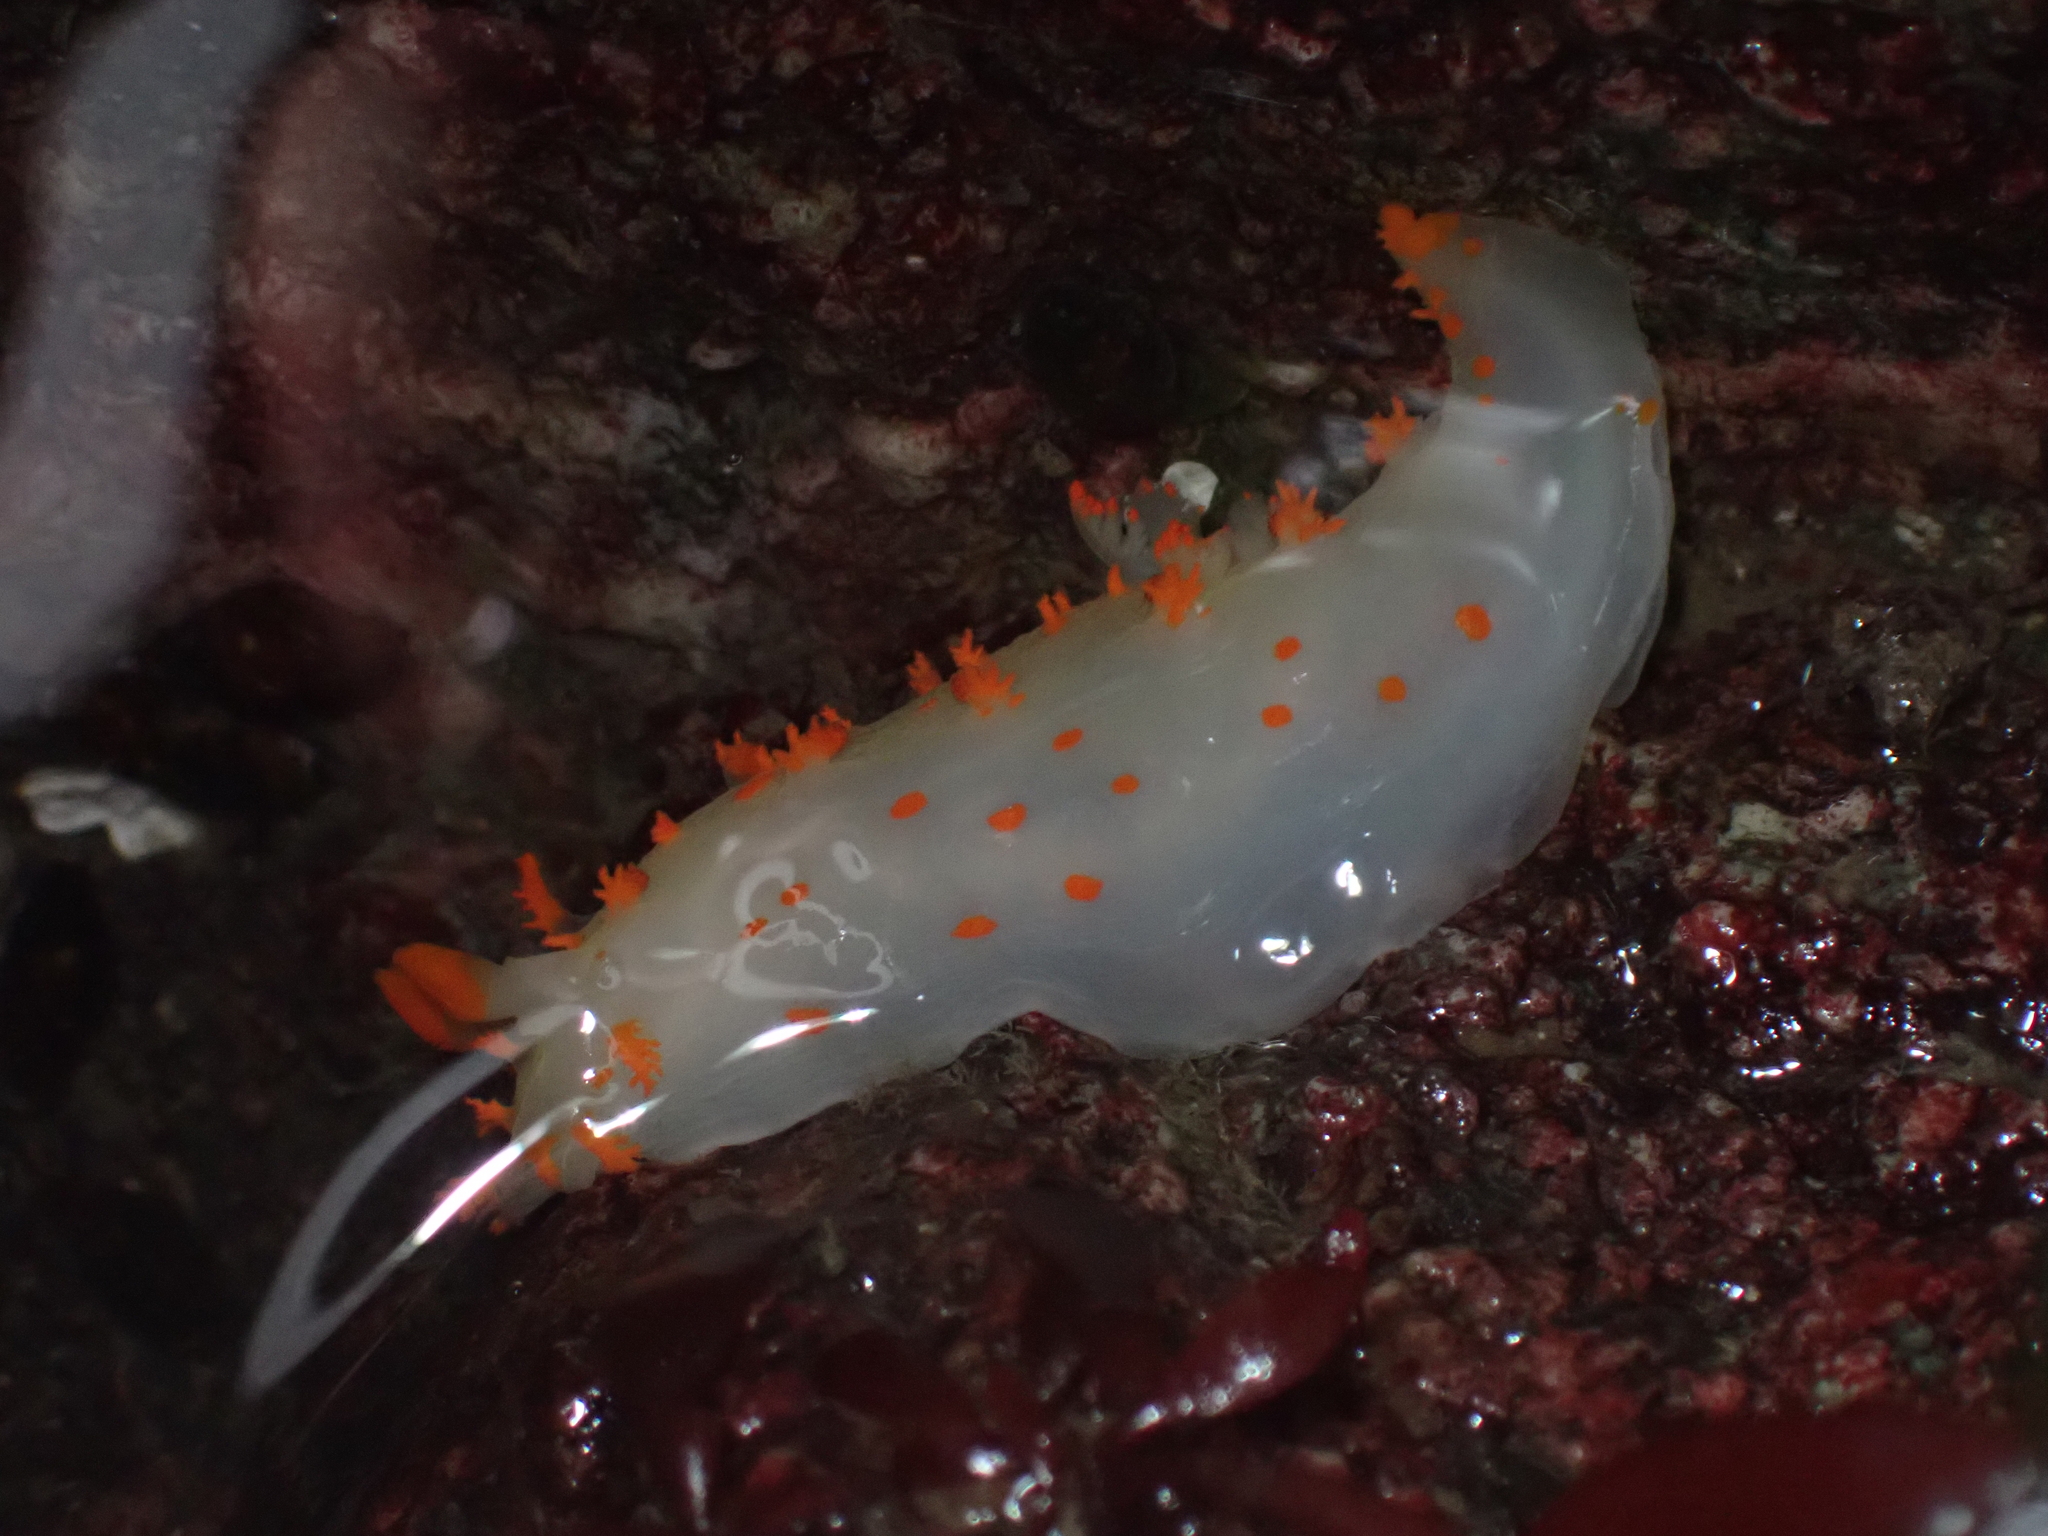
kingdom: Animalia
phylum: Mollusca
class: Gastropoda
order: Nudibranchia
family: Polyceridae
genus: Triopha
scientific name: Triopha modesta
